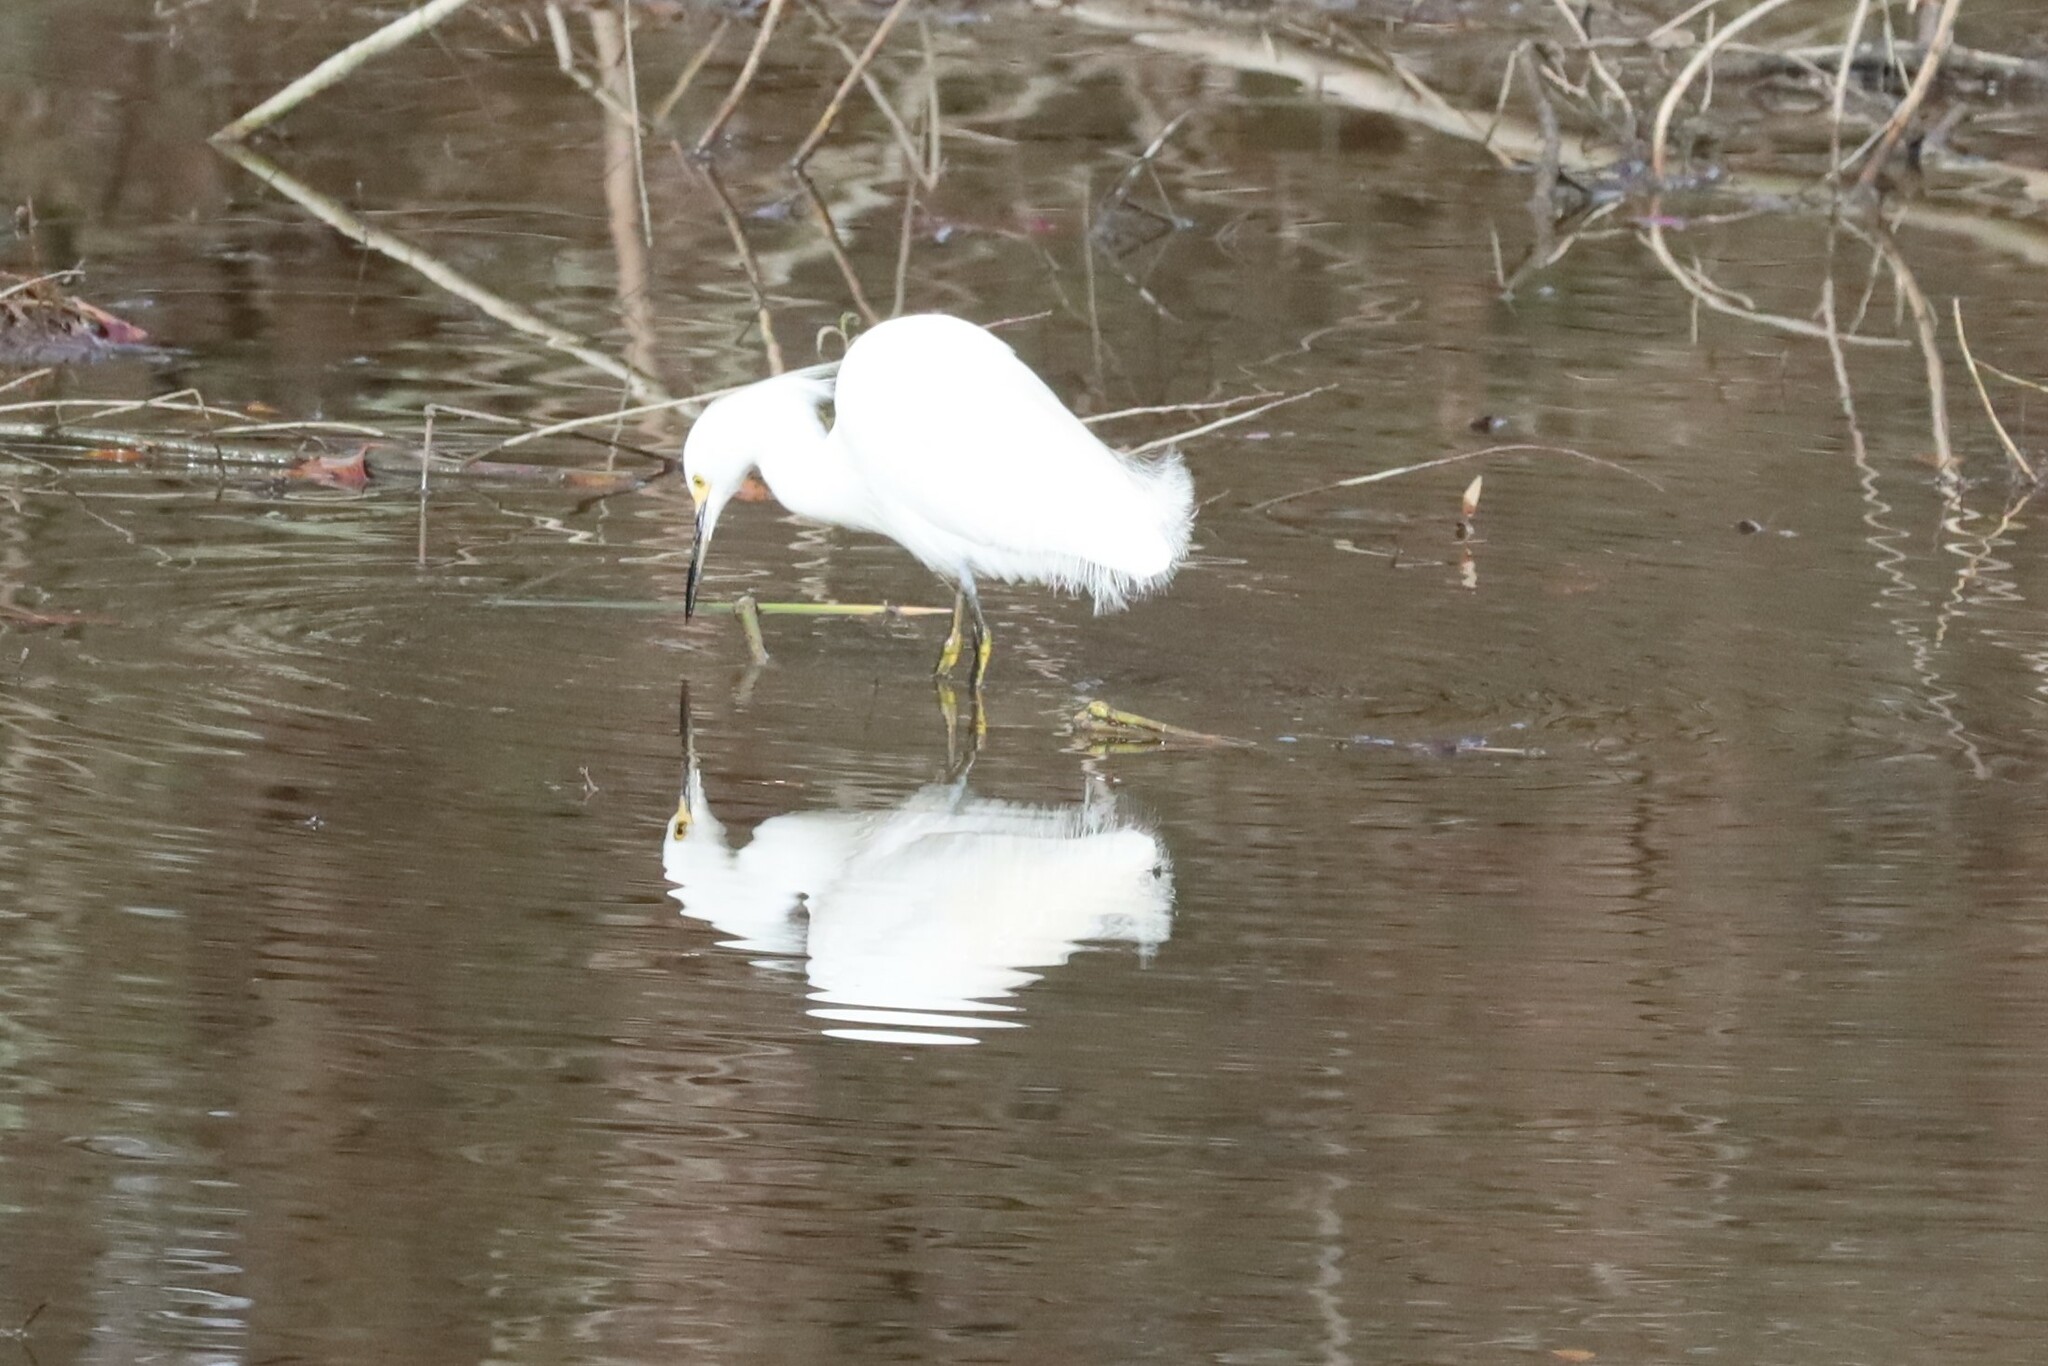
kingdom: Animalia
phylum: Chordata
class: Aves
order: Pelecaniformes
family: Ardeidae
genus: Egretta
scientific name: Egretta thula
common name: Snowy egret
